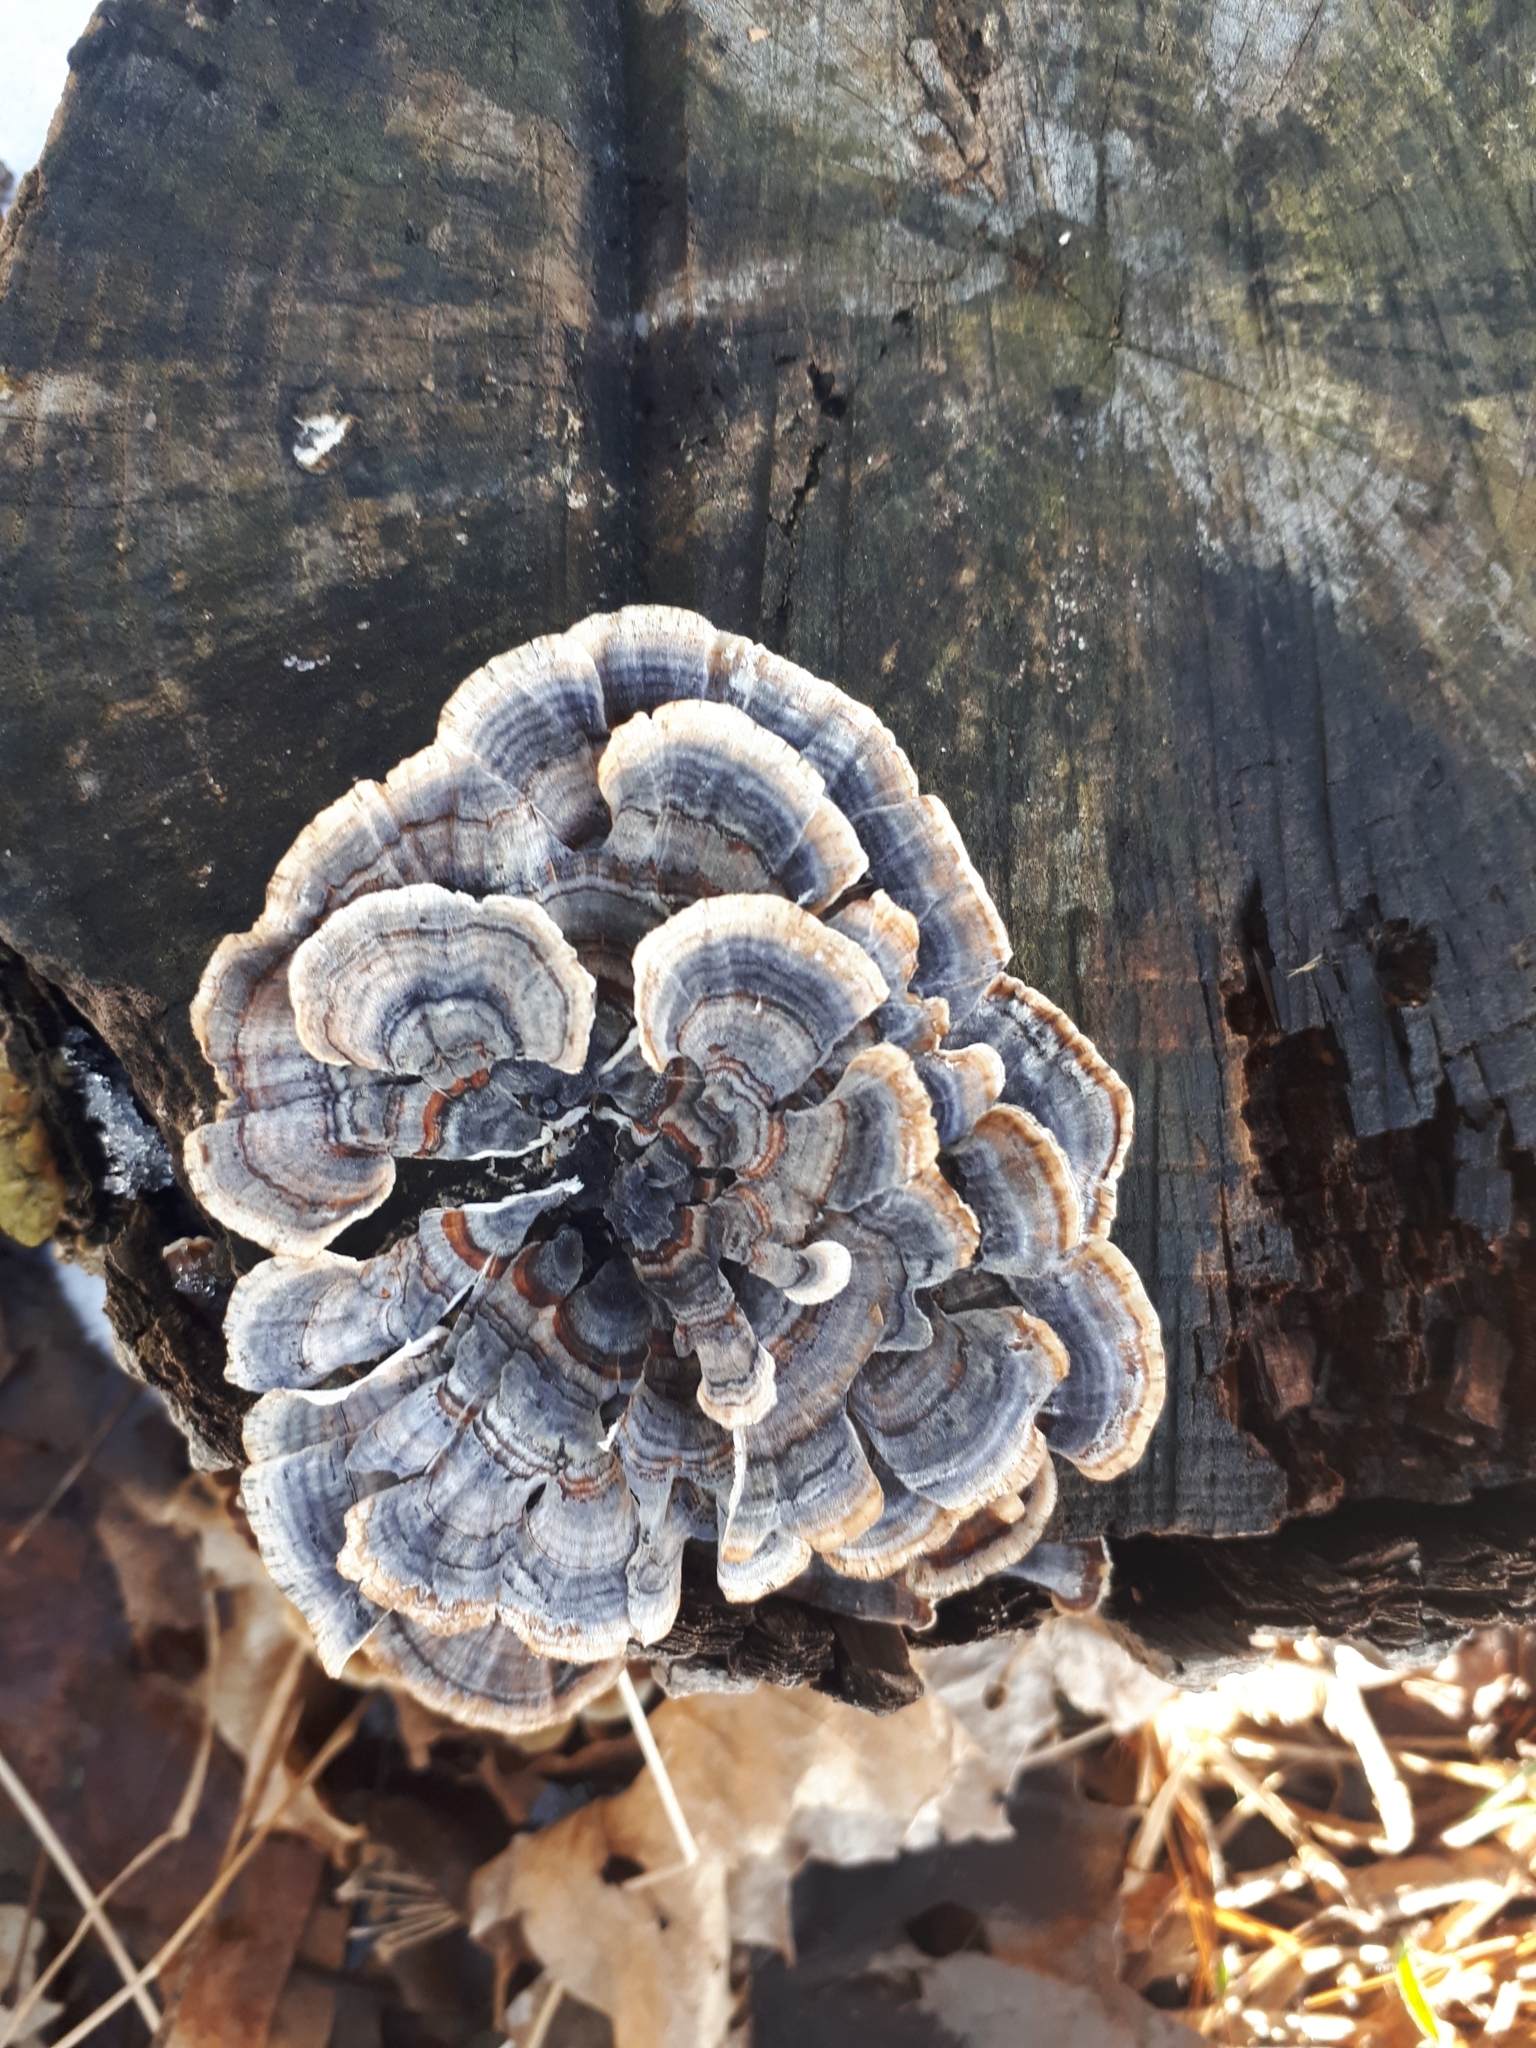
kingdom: Fungi
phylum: Basidiomycota
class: Agaricomycetes
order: Polyporales
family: Polyporaceae
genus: Trametes
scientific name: Trametes versicolor
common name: Turkeytail
